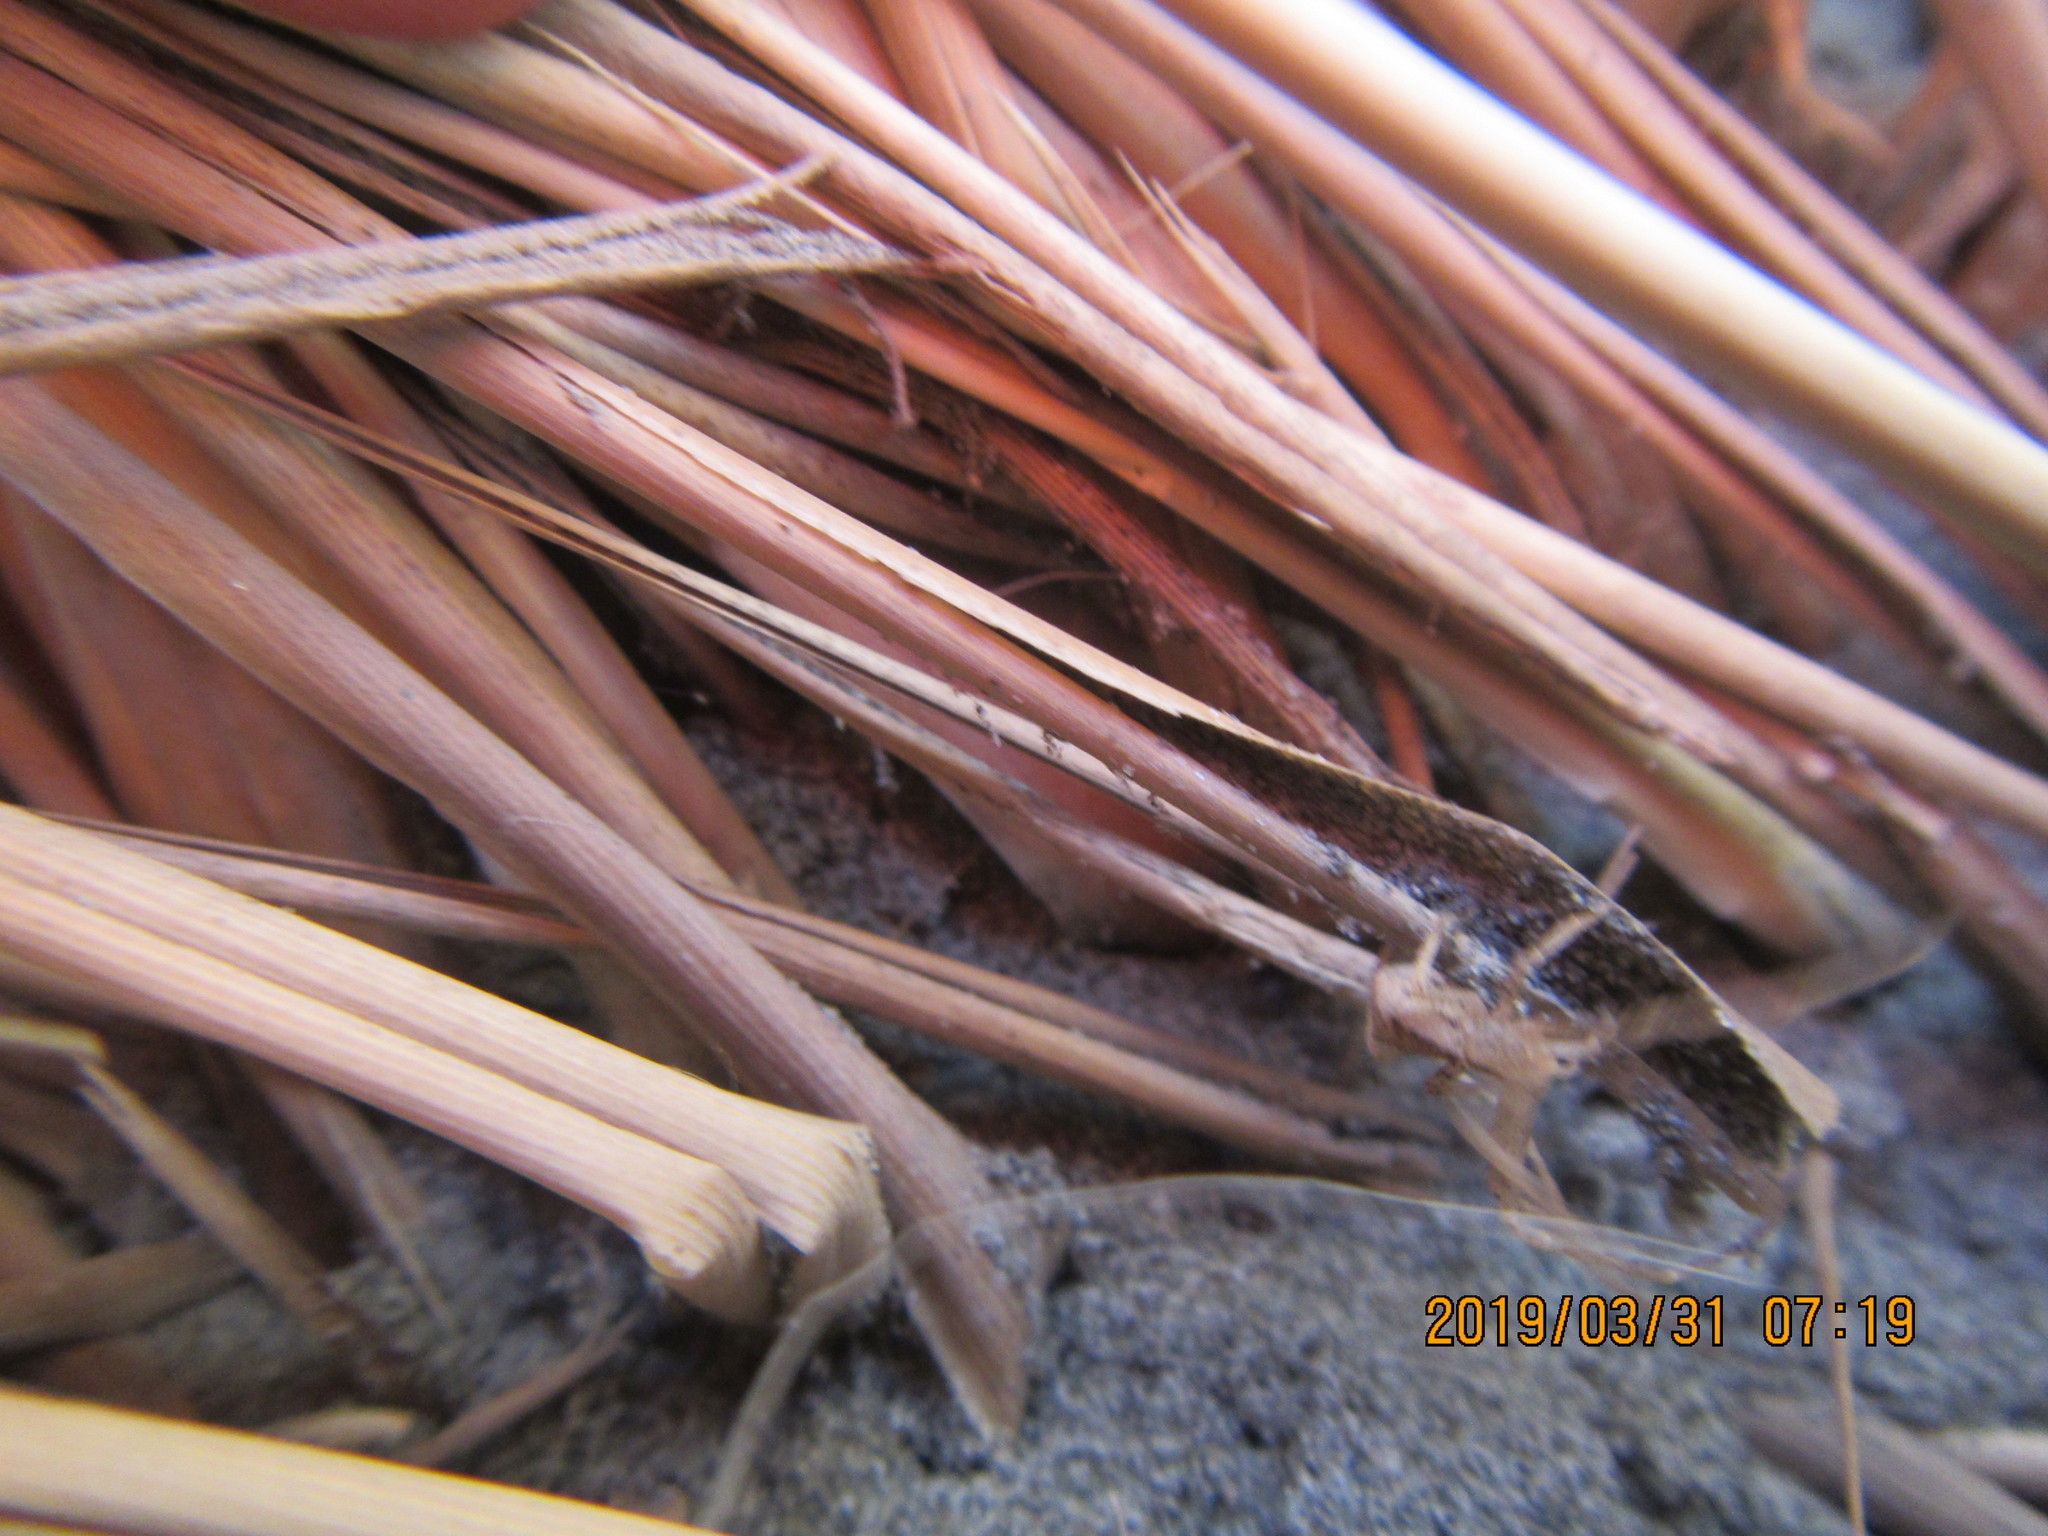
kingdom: Animalia
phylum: Arthropoda
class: Arachnida
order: Araneae
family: Thomisidae
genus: Sidymella
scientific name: Sidymella trapezia
